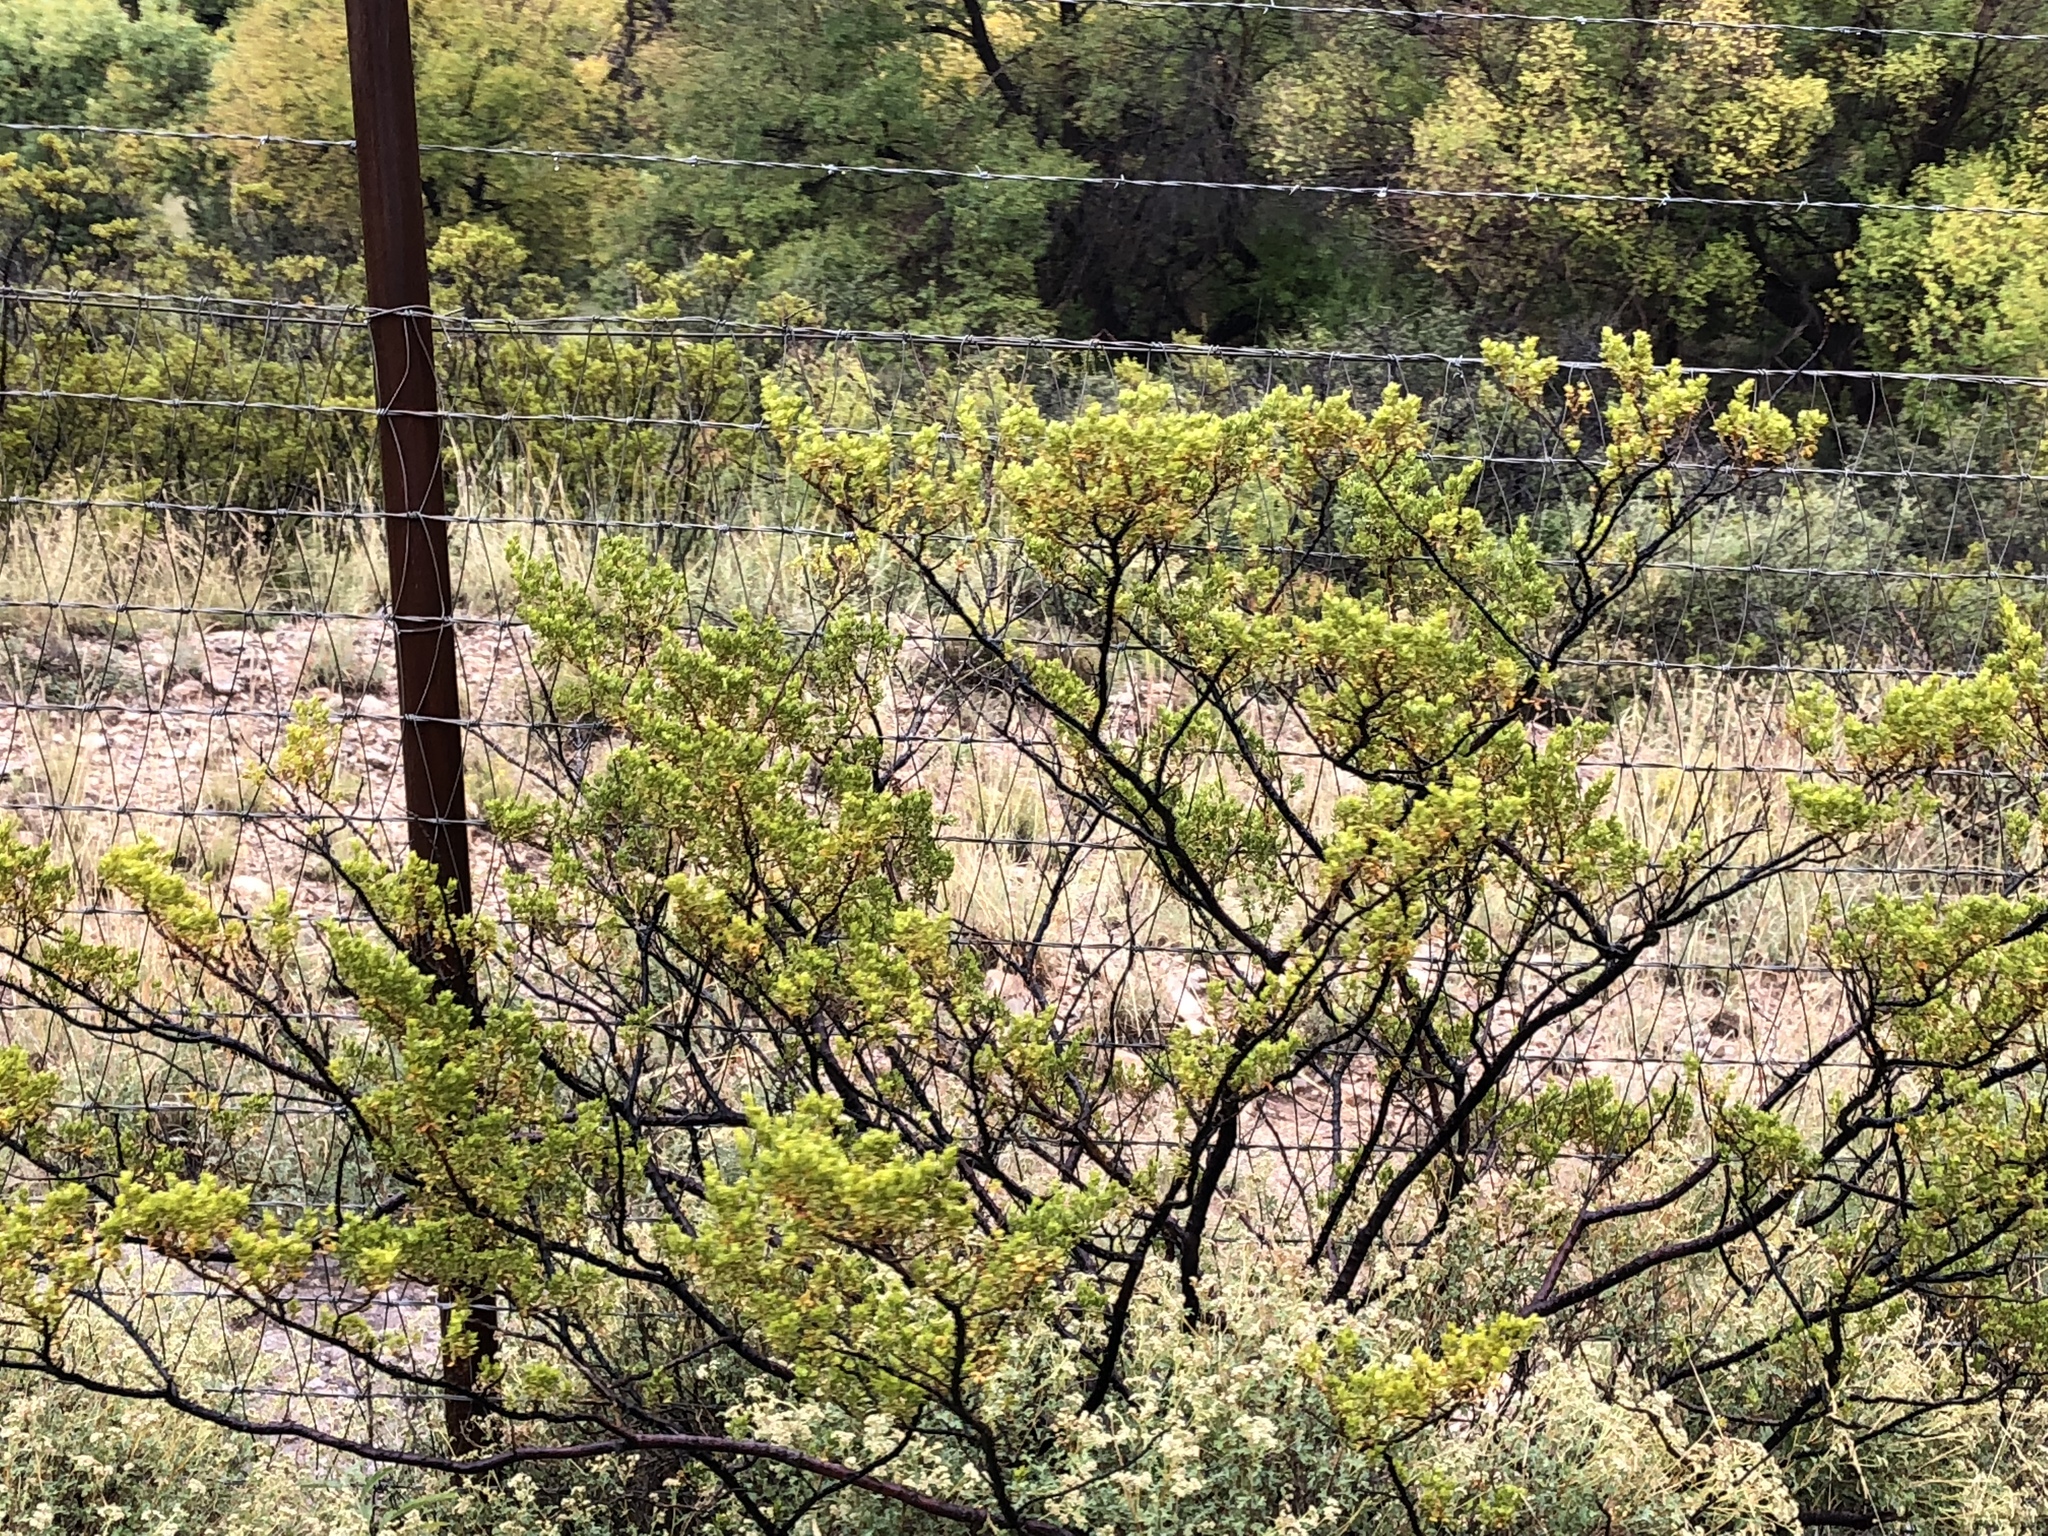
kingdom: Plantae
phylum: Tracheophyta
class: Magnoliopsida
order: Zygophyllales
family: Zygophyllaceae
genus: Larrea
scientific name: Larrea tridentata
